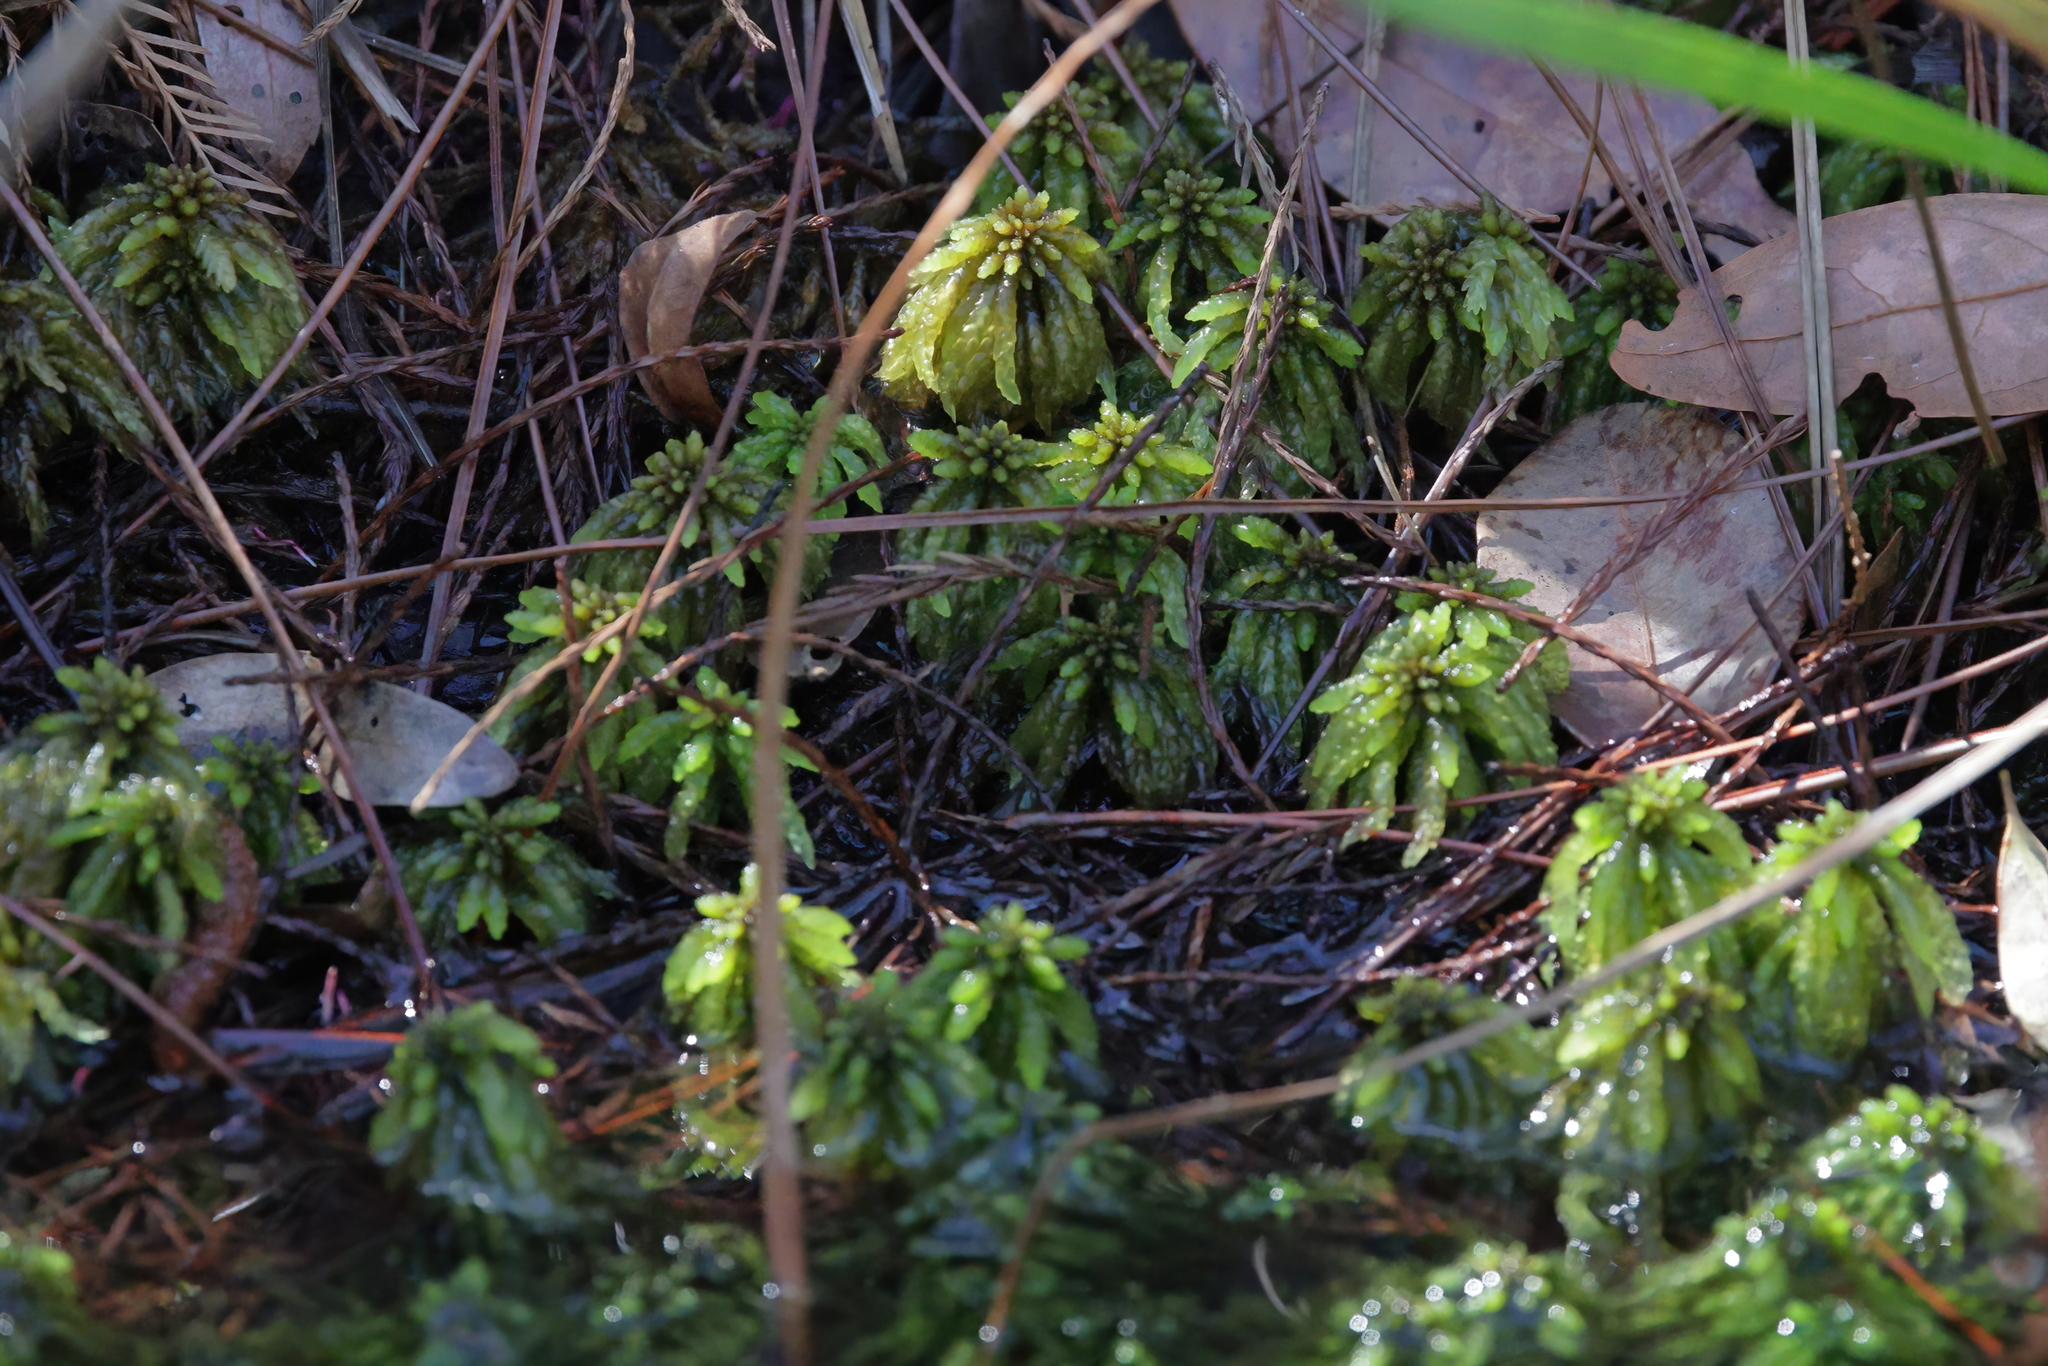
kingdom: Plantae
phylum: Bryophyta
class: Sphagnopsida
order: Sphagnales
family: Sphagnaceae
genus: Sphagnum
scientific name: Sphagnum portoricense
